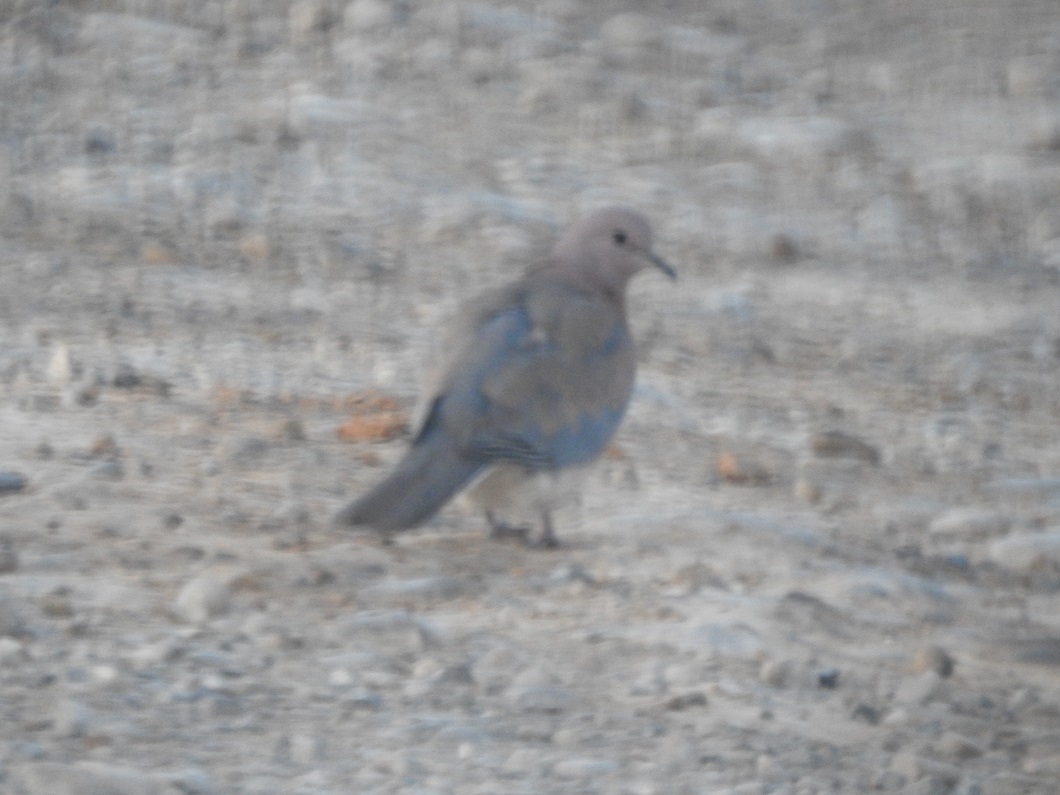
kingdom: Animalia
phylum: Chordata
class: Aves
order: Columbiformes
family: Columbidae
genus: Spilopelia
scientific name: Spilopelia senegalensis
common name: Laughing dove
